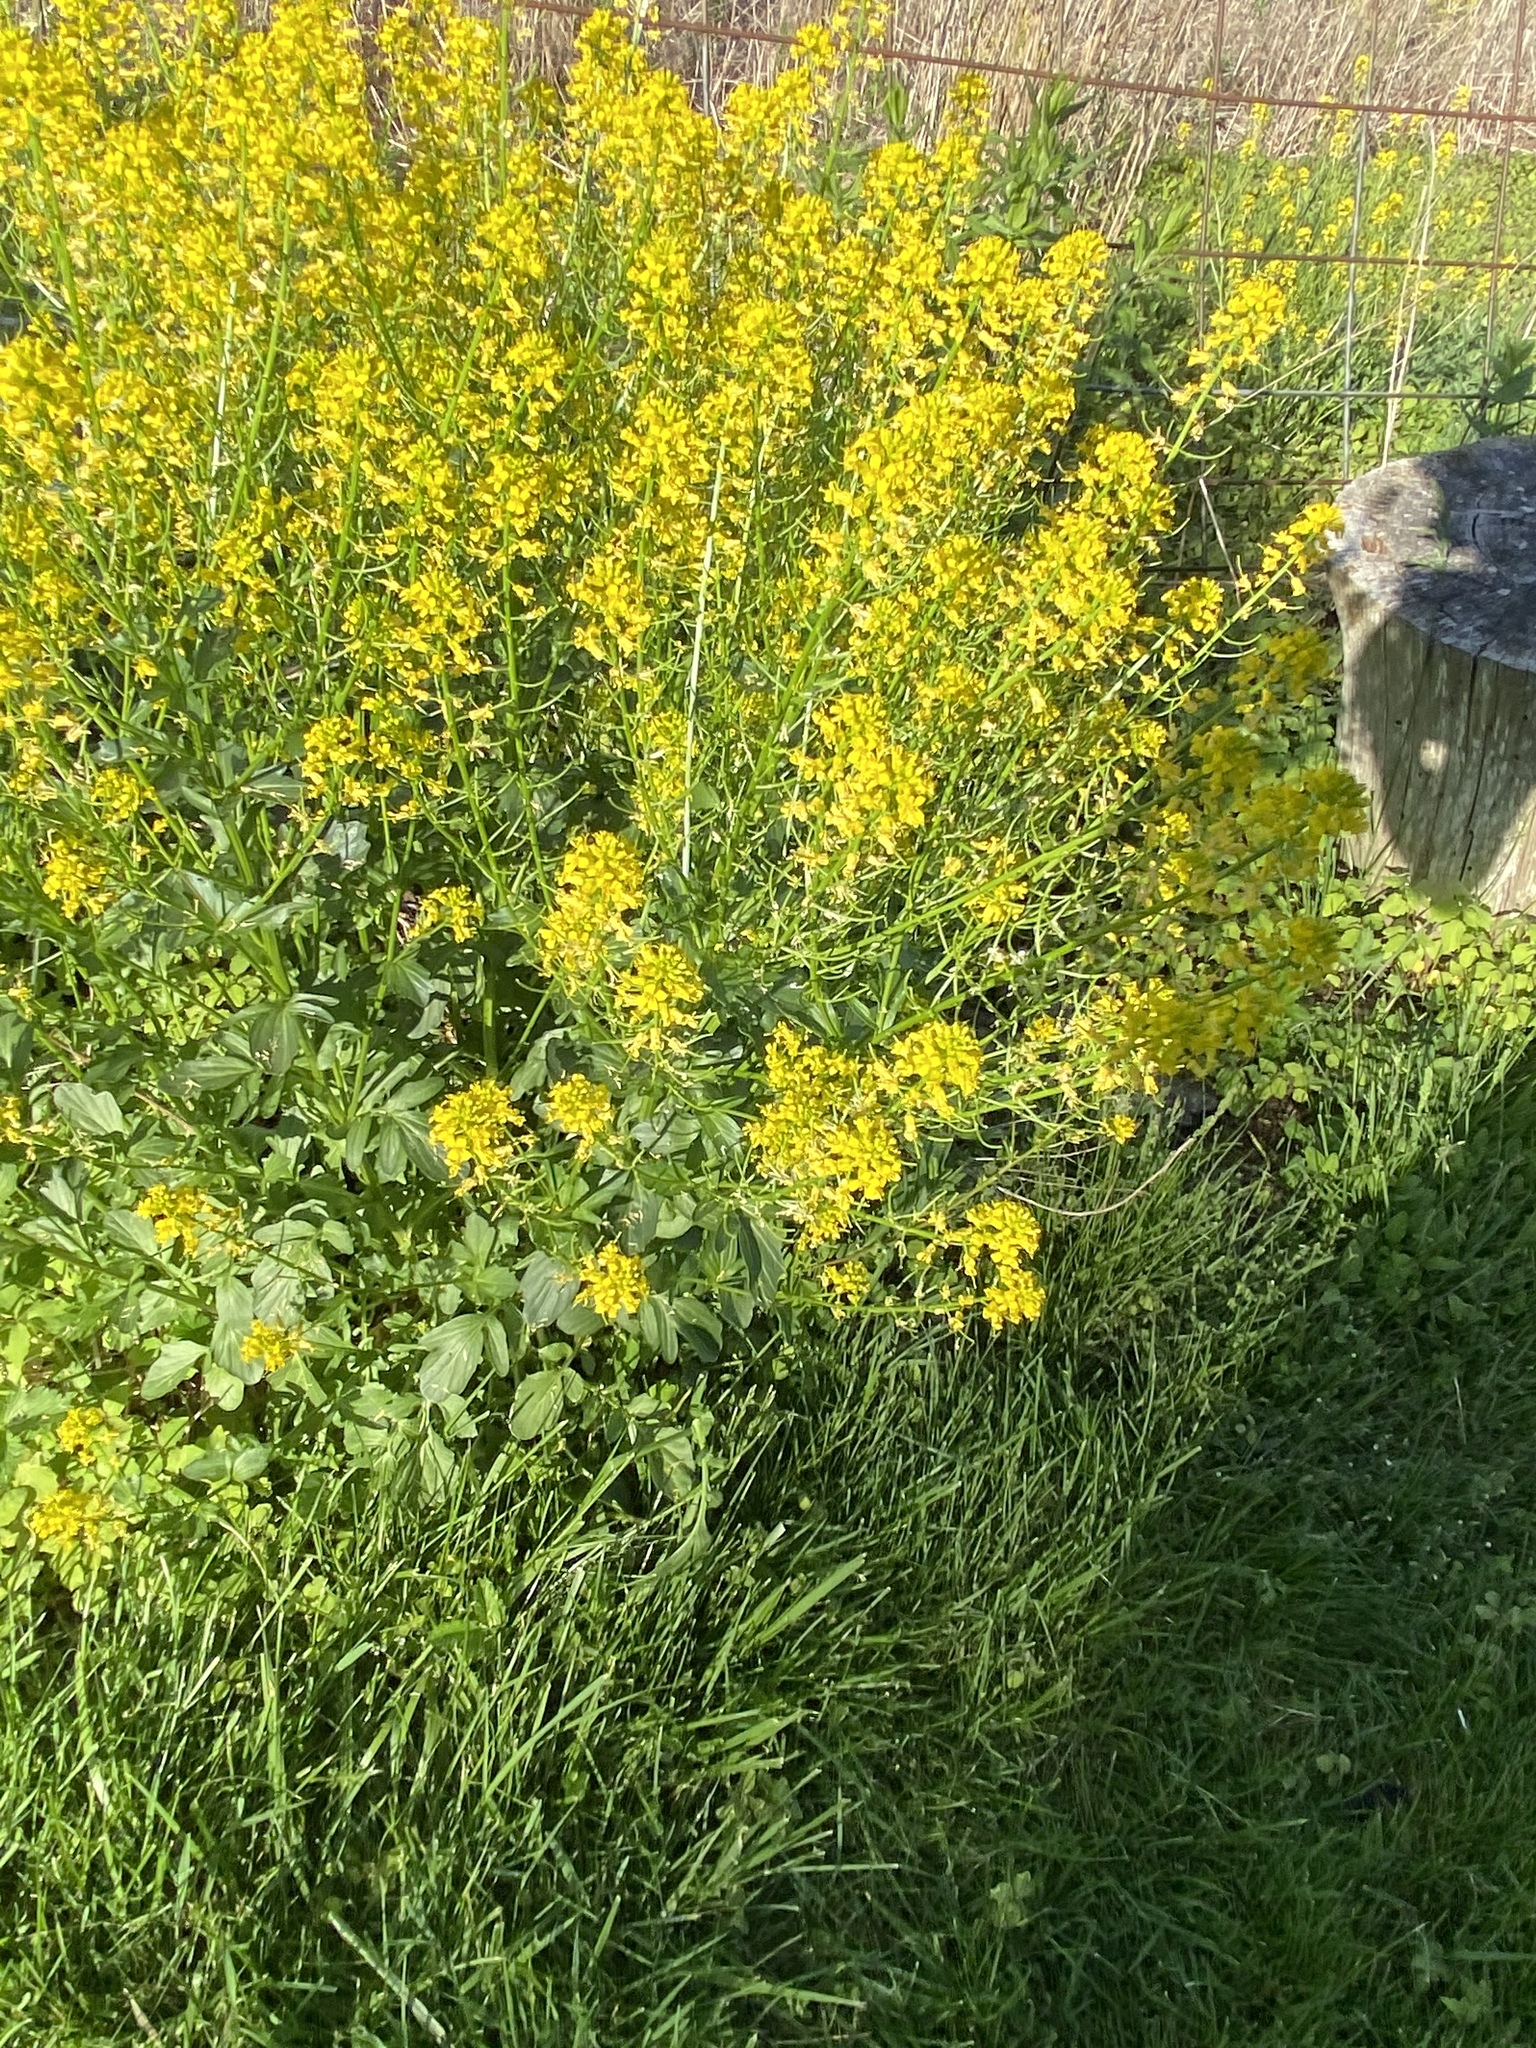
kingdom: Plantae
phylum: Tracheophyta
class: Magnoliopsida
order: Brassicales
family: Brassicaceae
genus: Barbarea
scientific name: Barbarea vulgaris
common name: Cressy-greens
